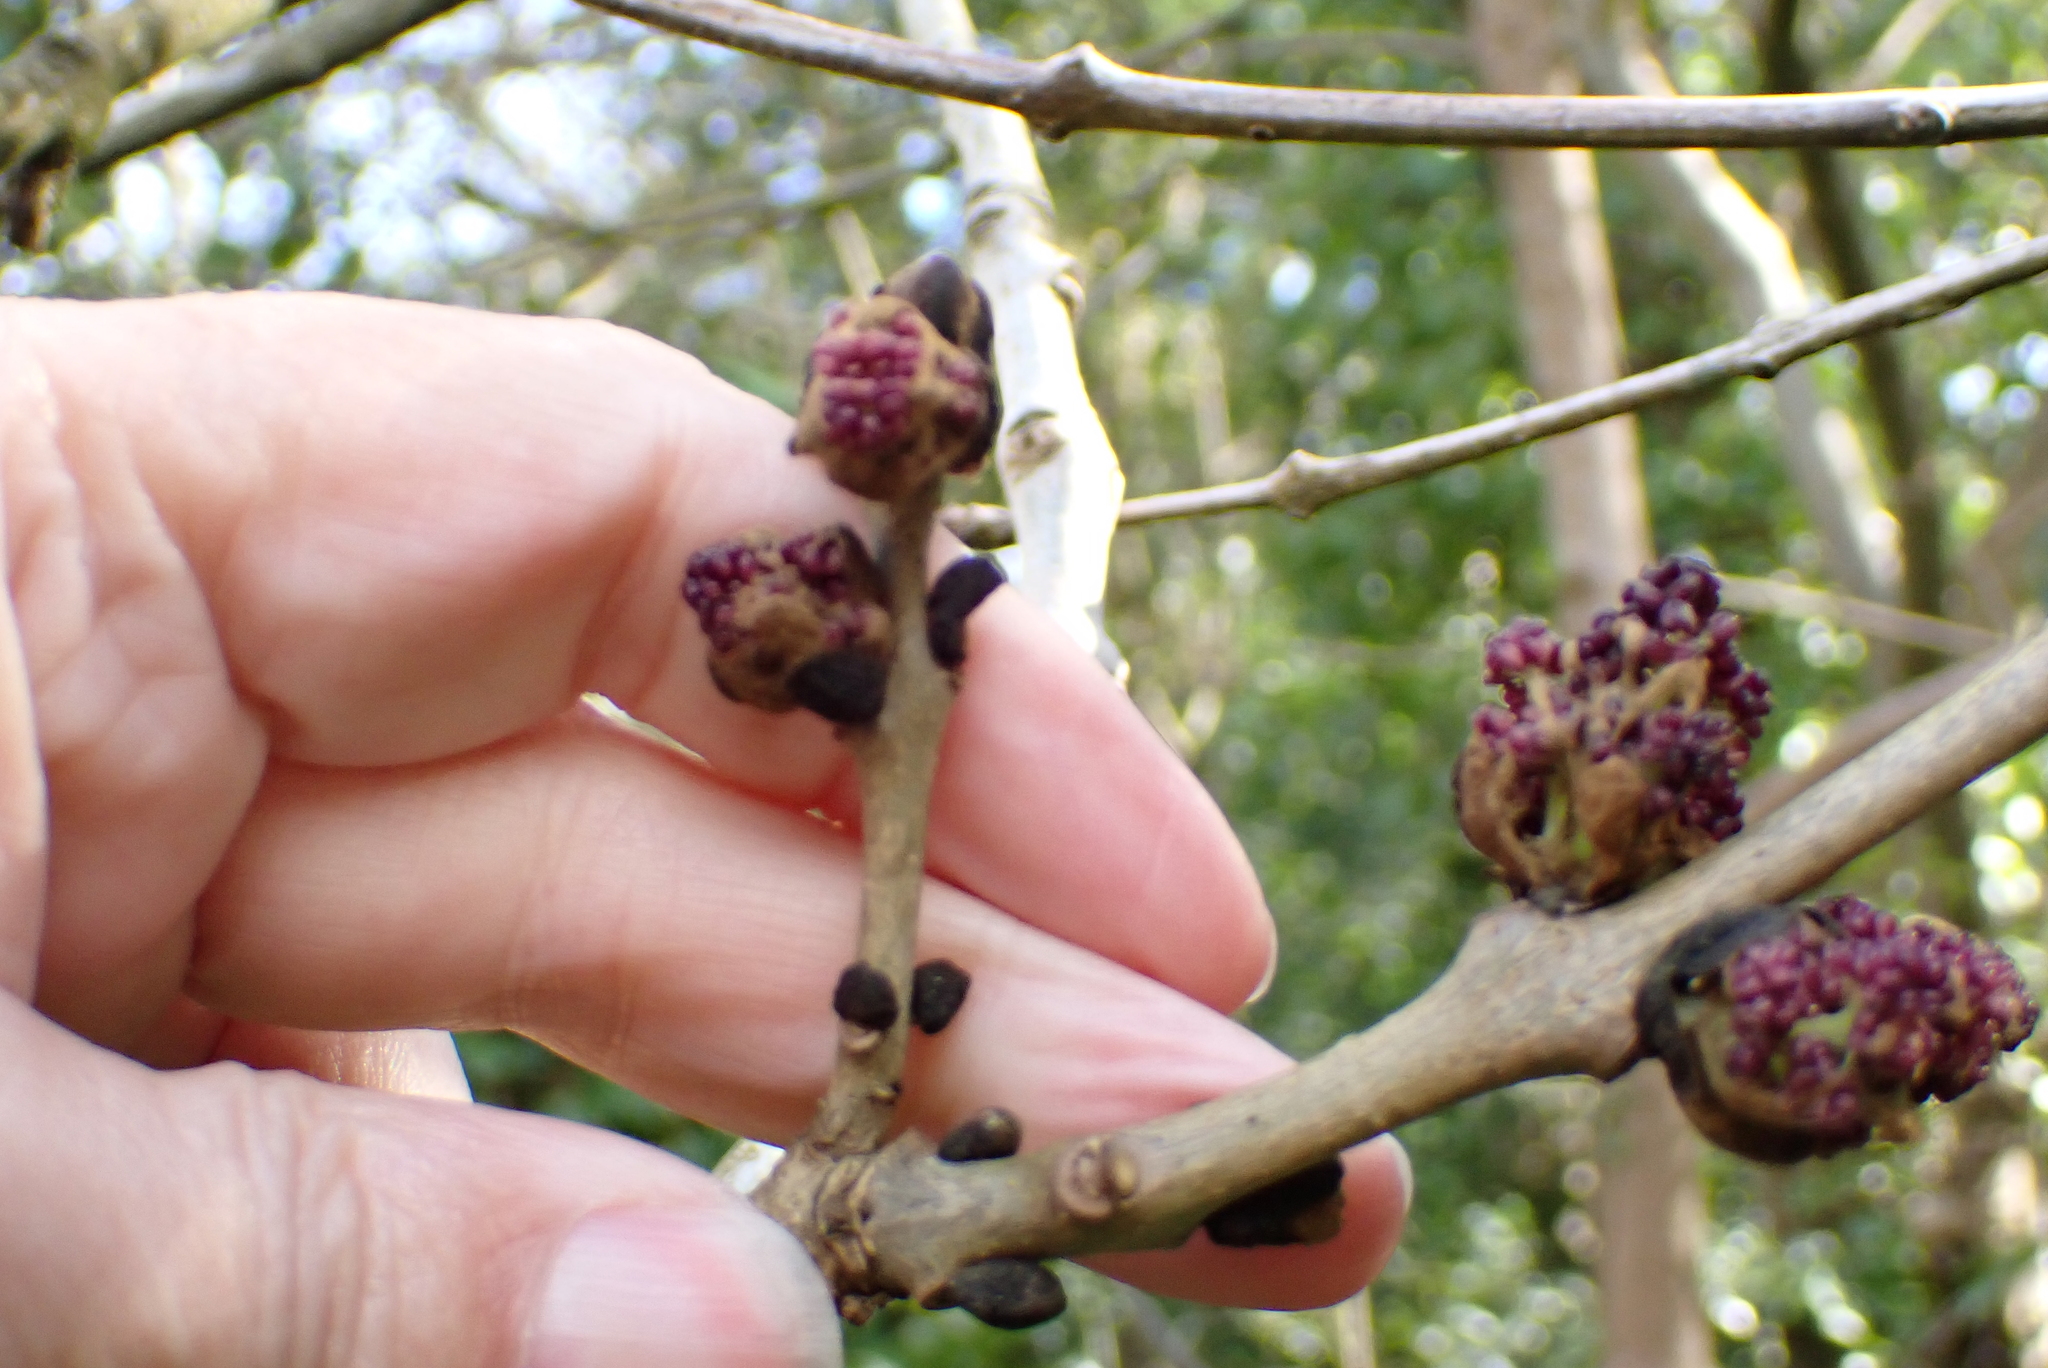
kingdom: Plantae
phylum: Tracheophyta
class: Magnoliopsida
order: Lamiales
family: Oleaceae
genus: Fraxinus
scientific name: Fraxinus excelsior
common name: European ash
